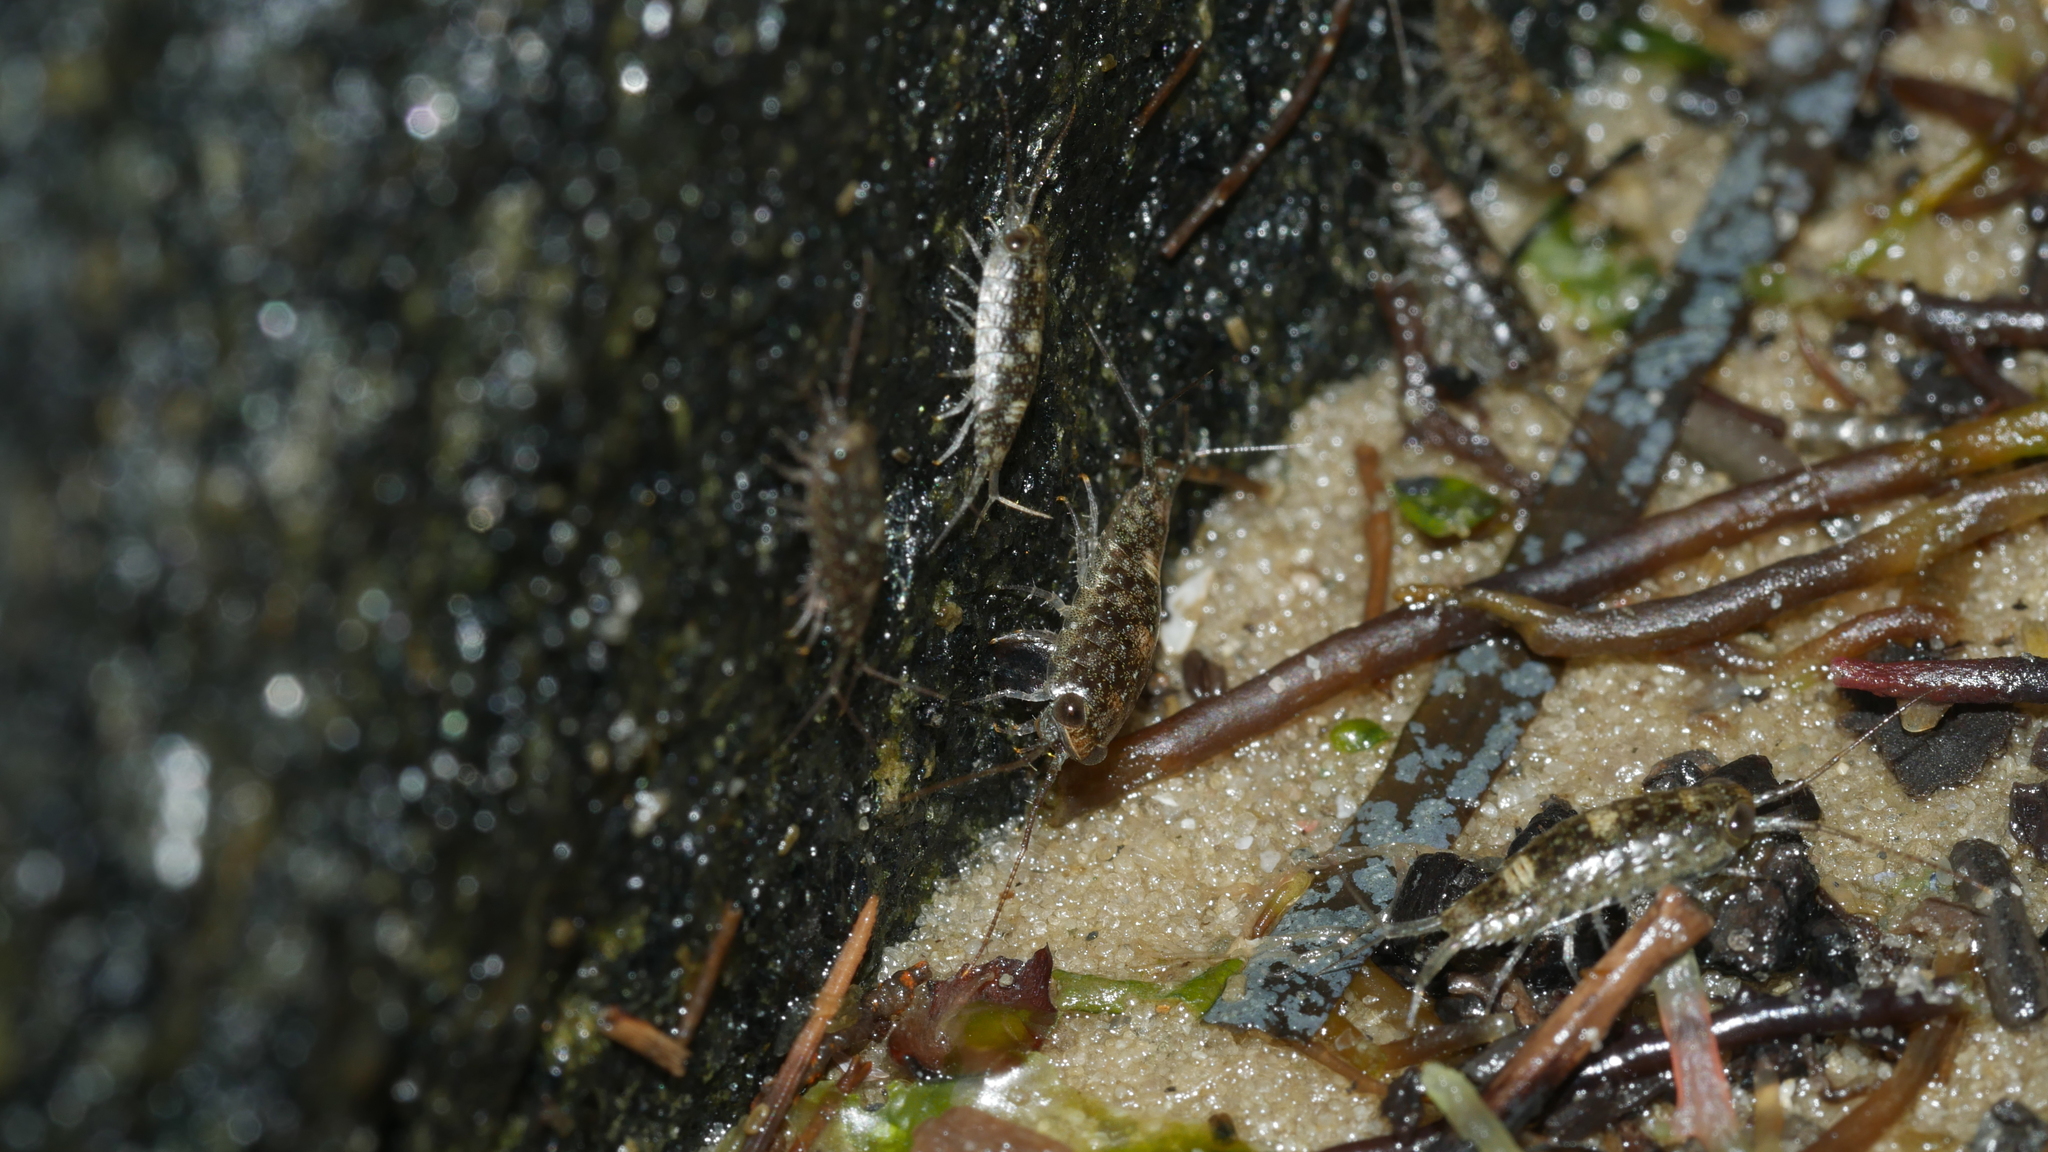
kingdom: Animalia
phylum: Arthropoda
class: Malacostraca
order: Isopoda
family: Ligiidae
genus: Ligia
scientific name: Ligia exotica
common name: Wharf roach
